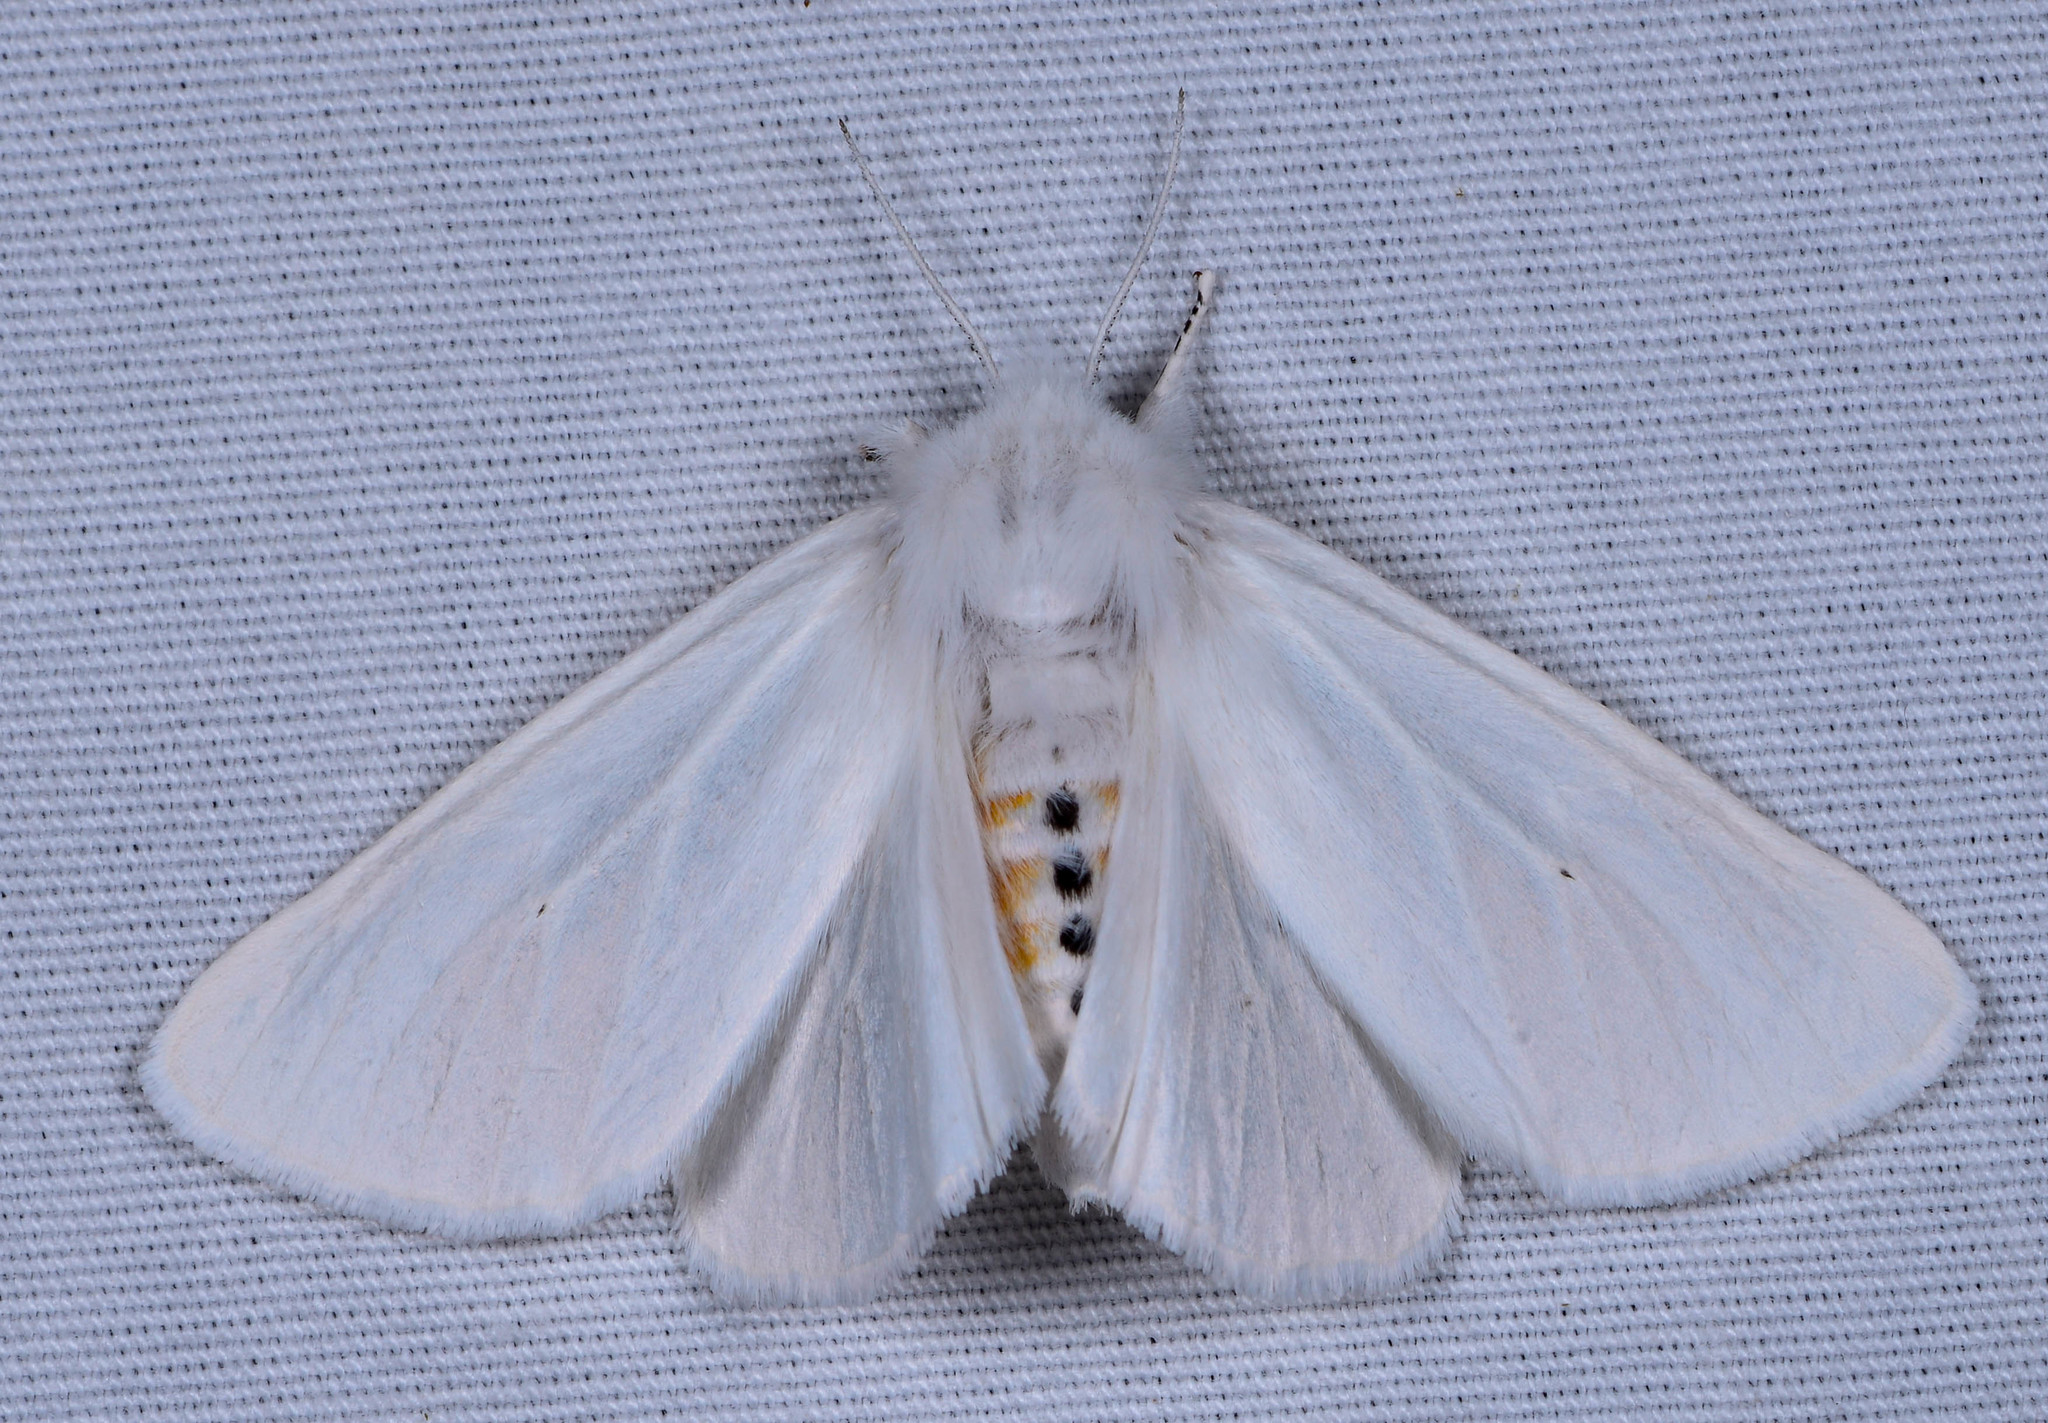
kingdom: Animalia
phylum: Arthropoda
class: Insecta
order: Lepidoptera
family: Erebidae
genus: Spilosoma
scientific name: Spilosoma virginica
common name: Virginia tiger moth
